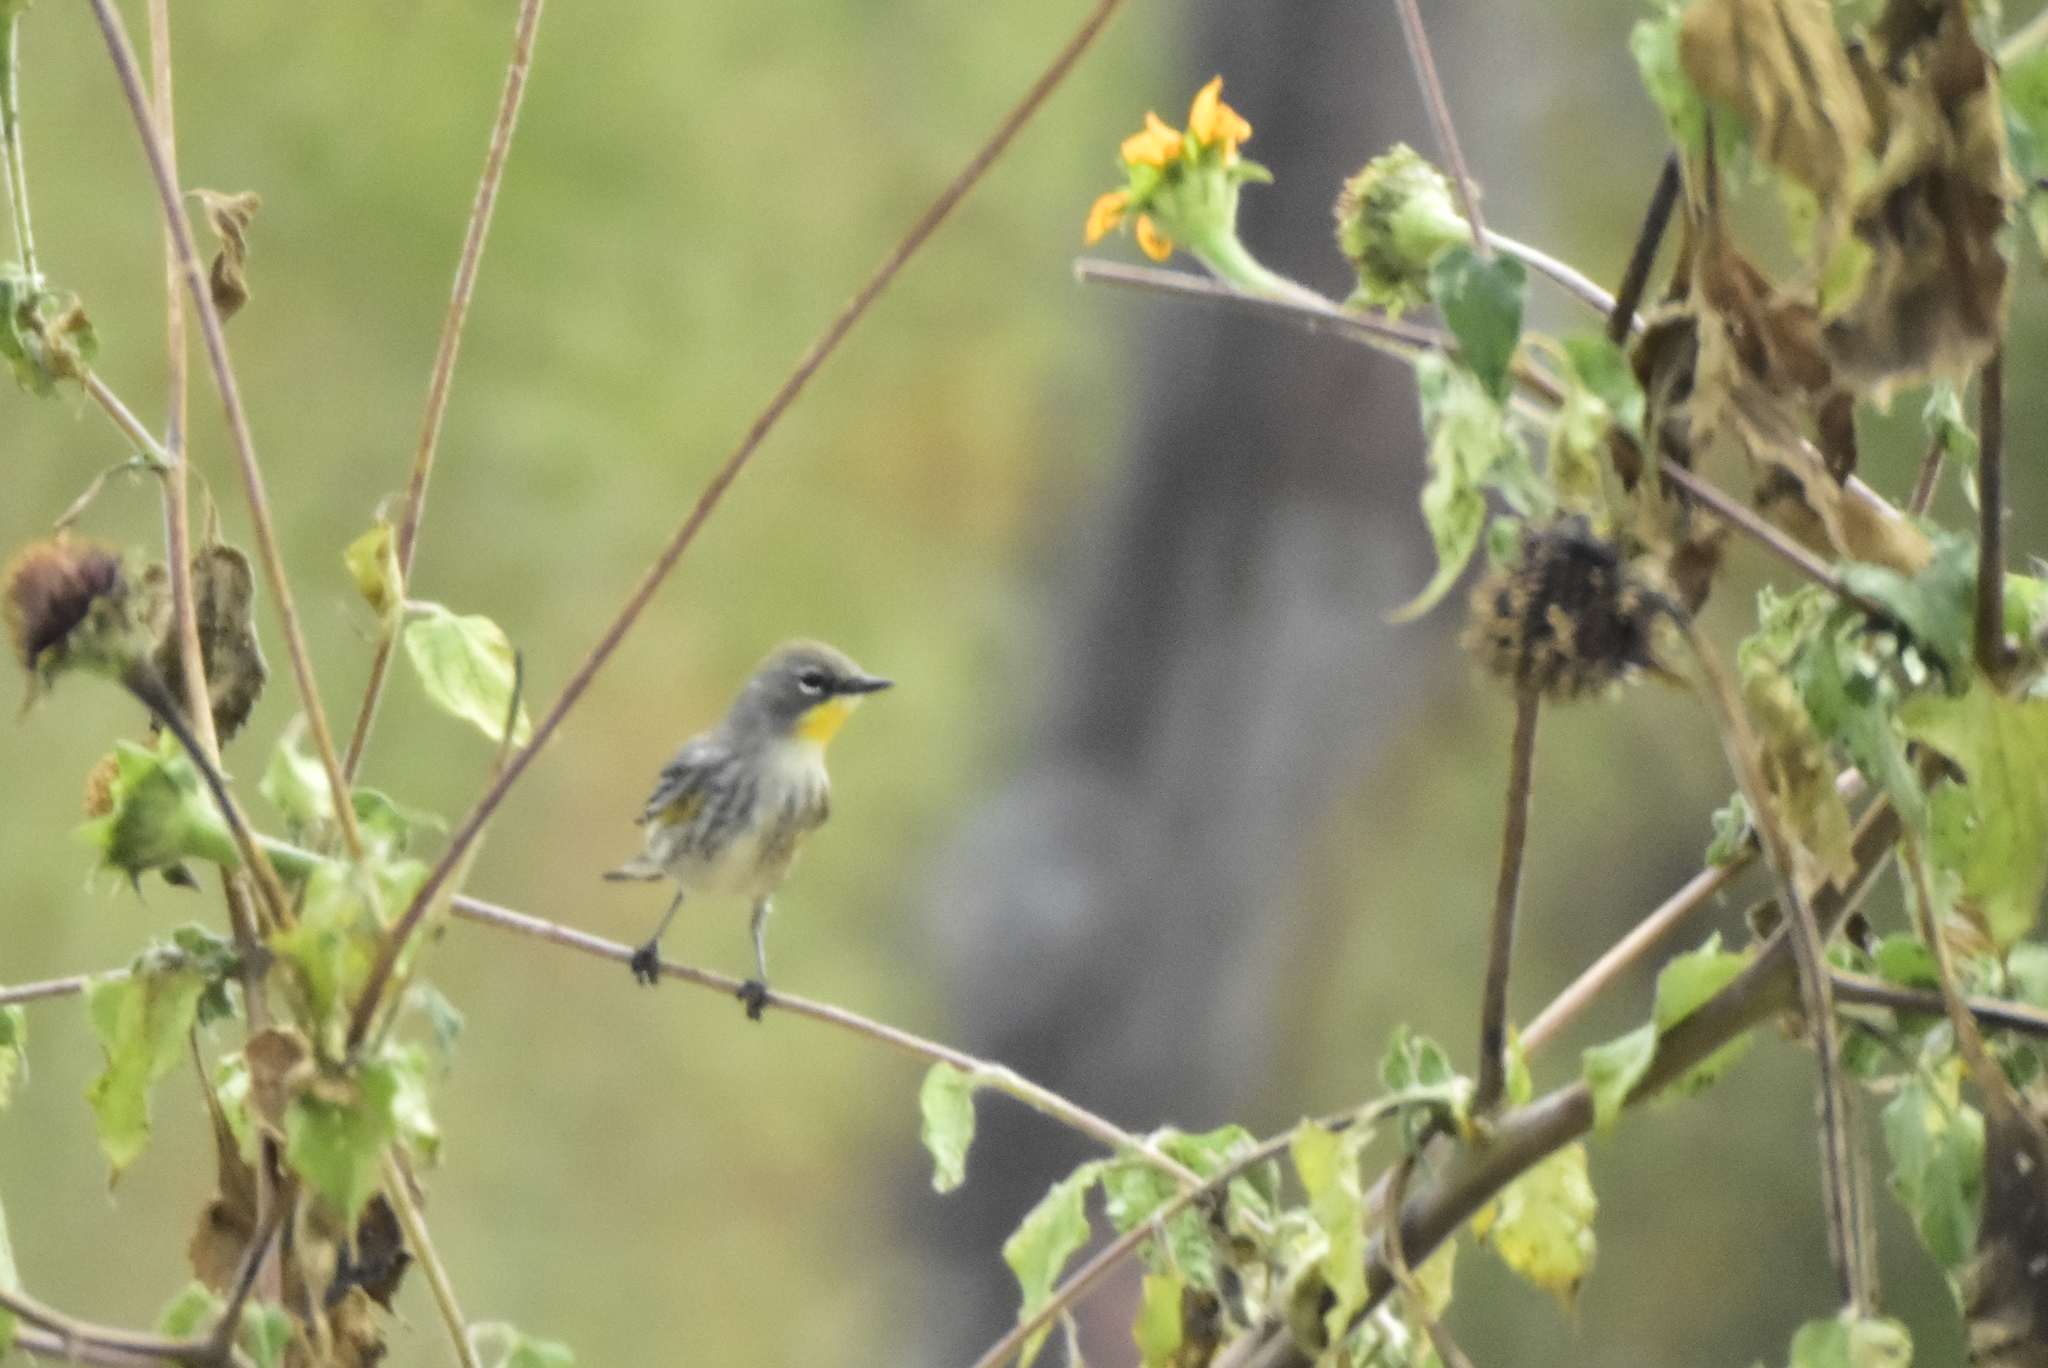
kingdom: Animalia
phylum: Chordata
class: Aves
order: Passeriformes
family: Parulidae
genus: Setophaga
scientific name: Setophaga coronata
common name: Myrtle warbler
